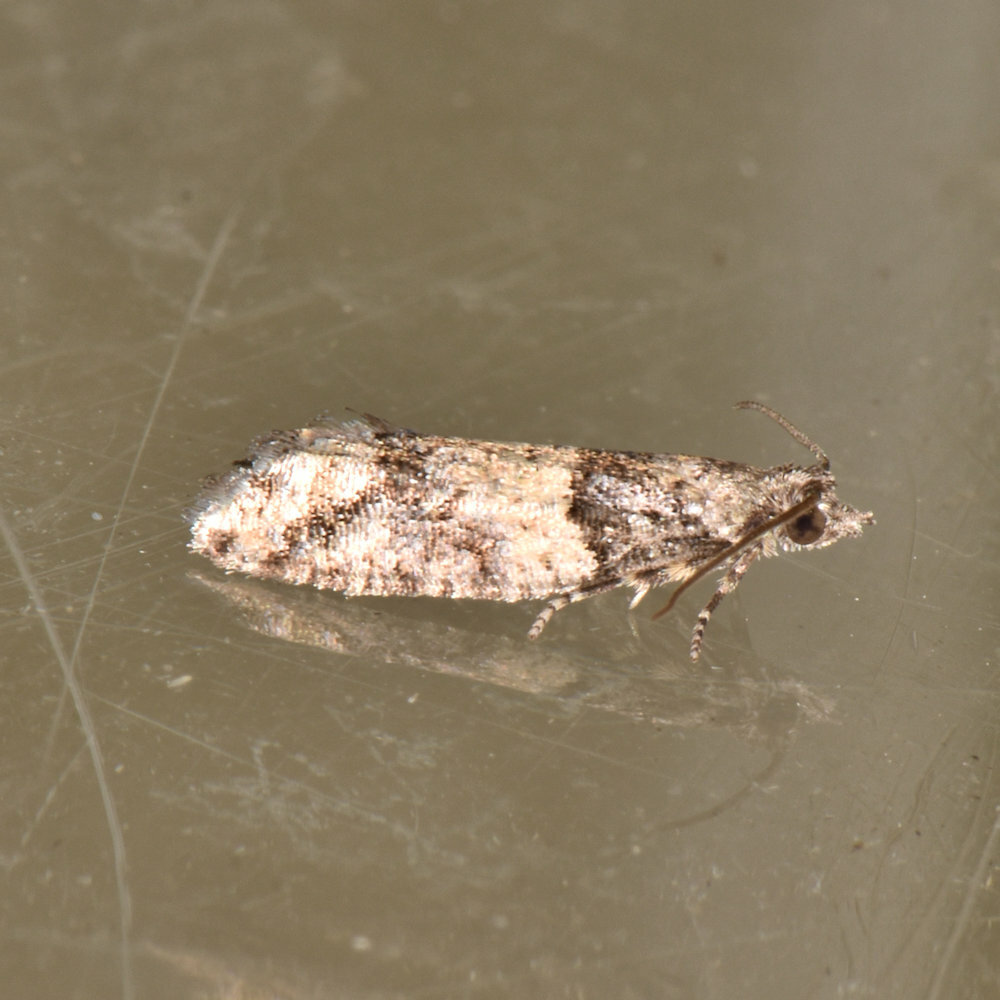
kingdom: Animalia
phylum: Arthropoda
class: Insecta
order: Lepidoptera
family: Tortricidae
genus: Epinotia
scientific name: Epinotia radicana
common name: Red-striped needleworm moth
